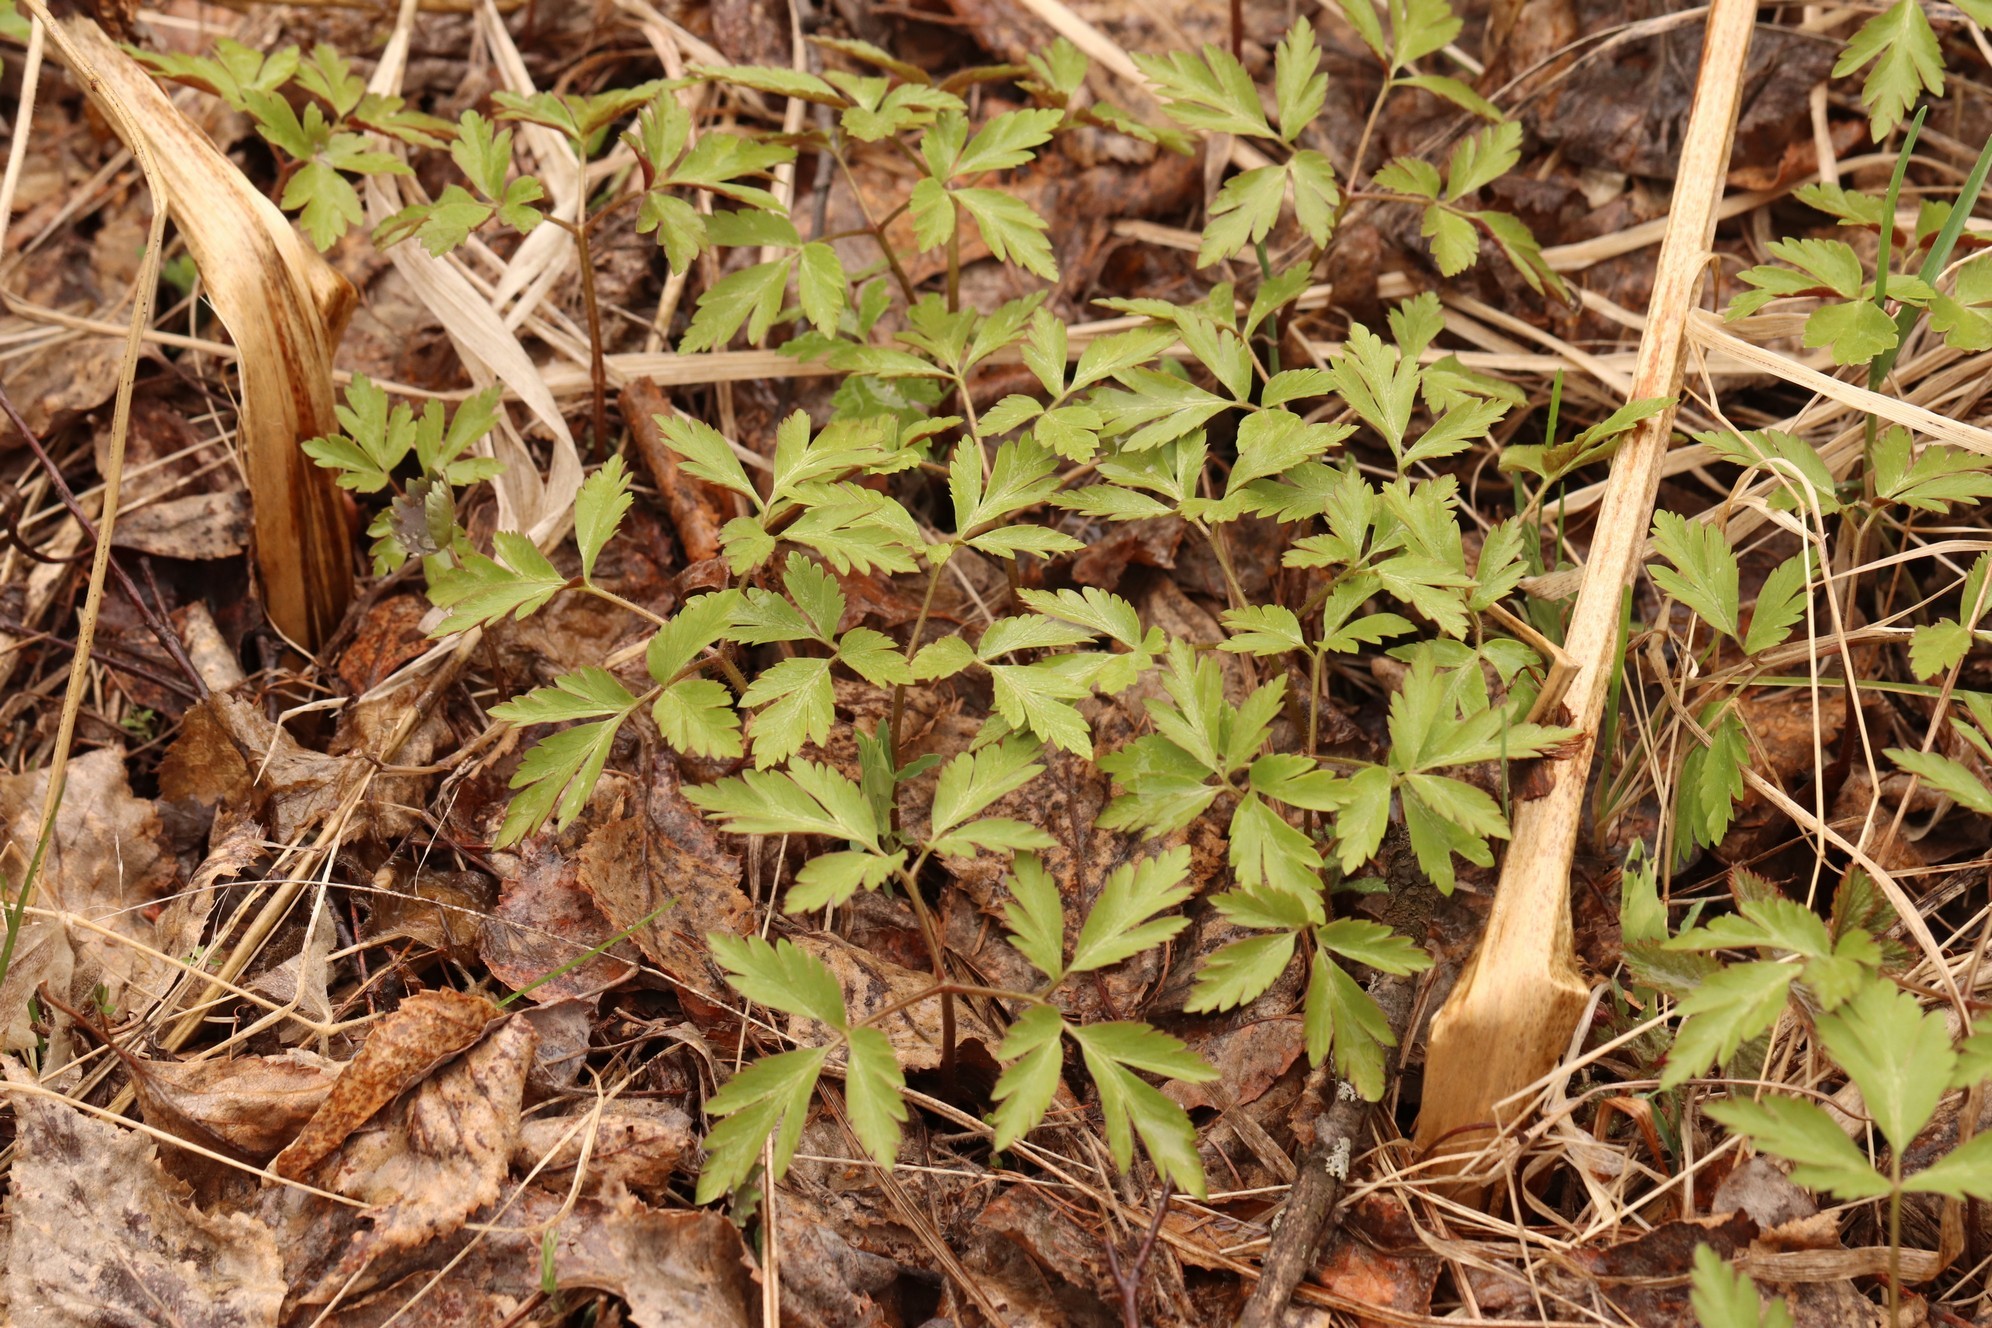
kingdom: Plantae
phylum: Tracheophyta
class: Magnoliopsida
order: Ranunculales
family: Ranunculaceae
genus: Anemone
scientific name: Anemone altaica
